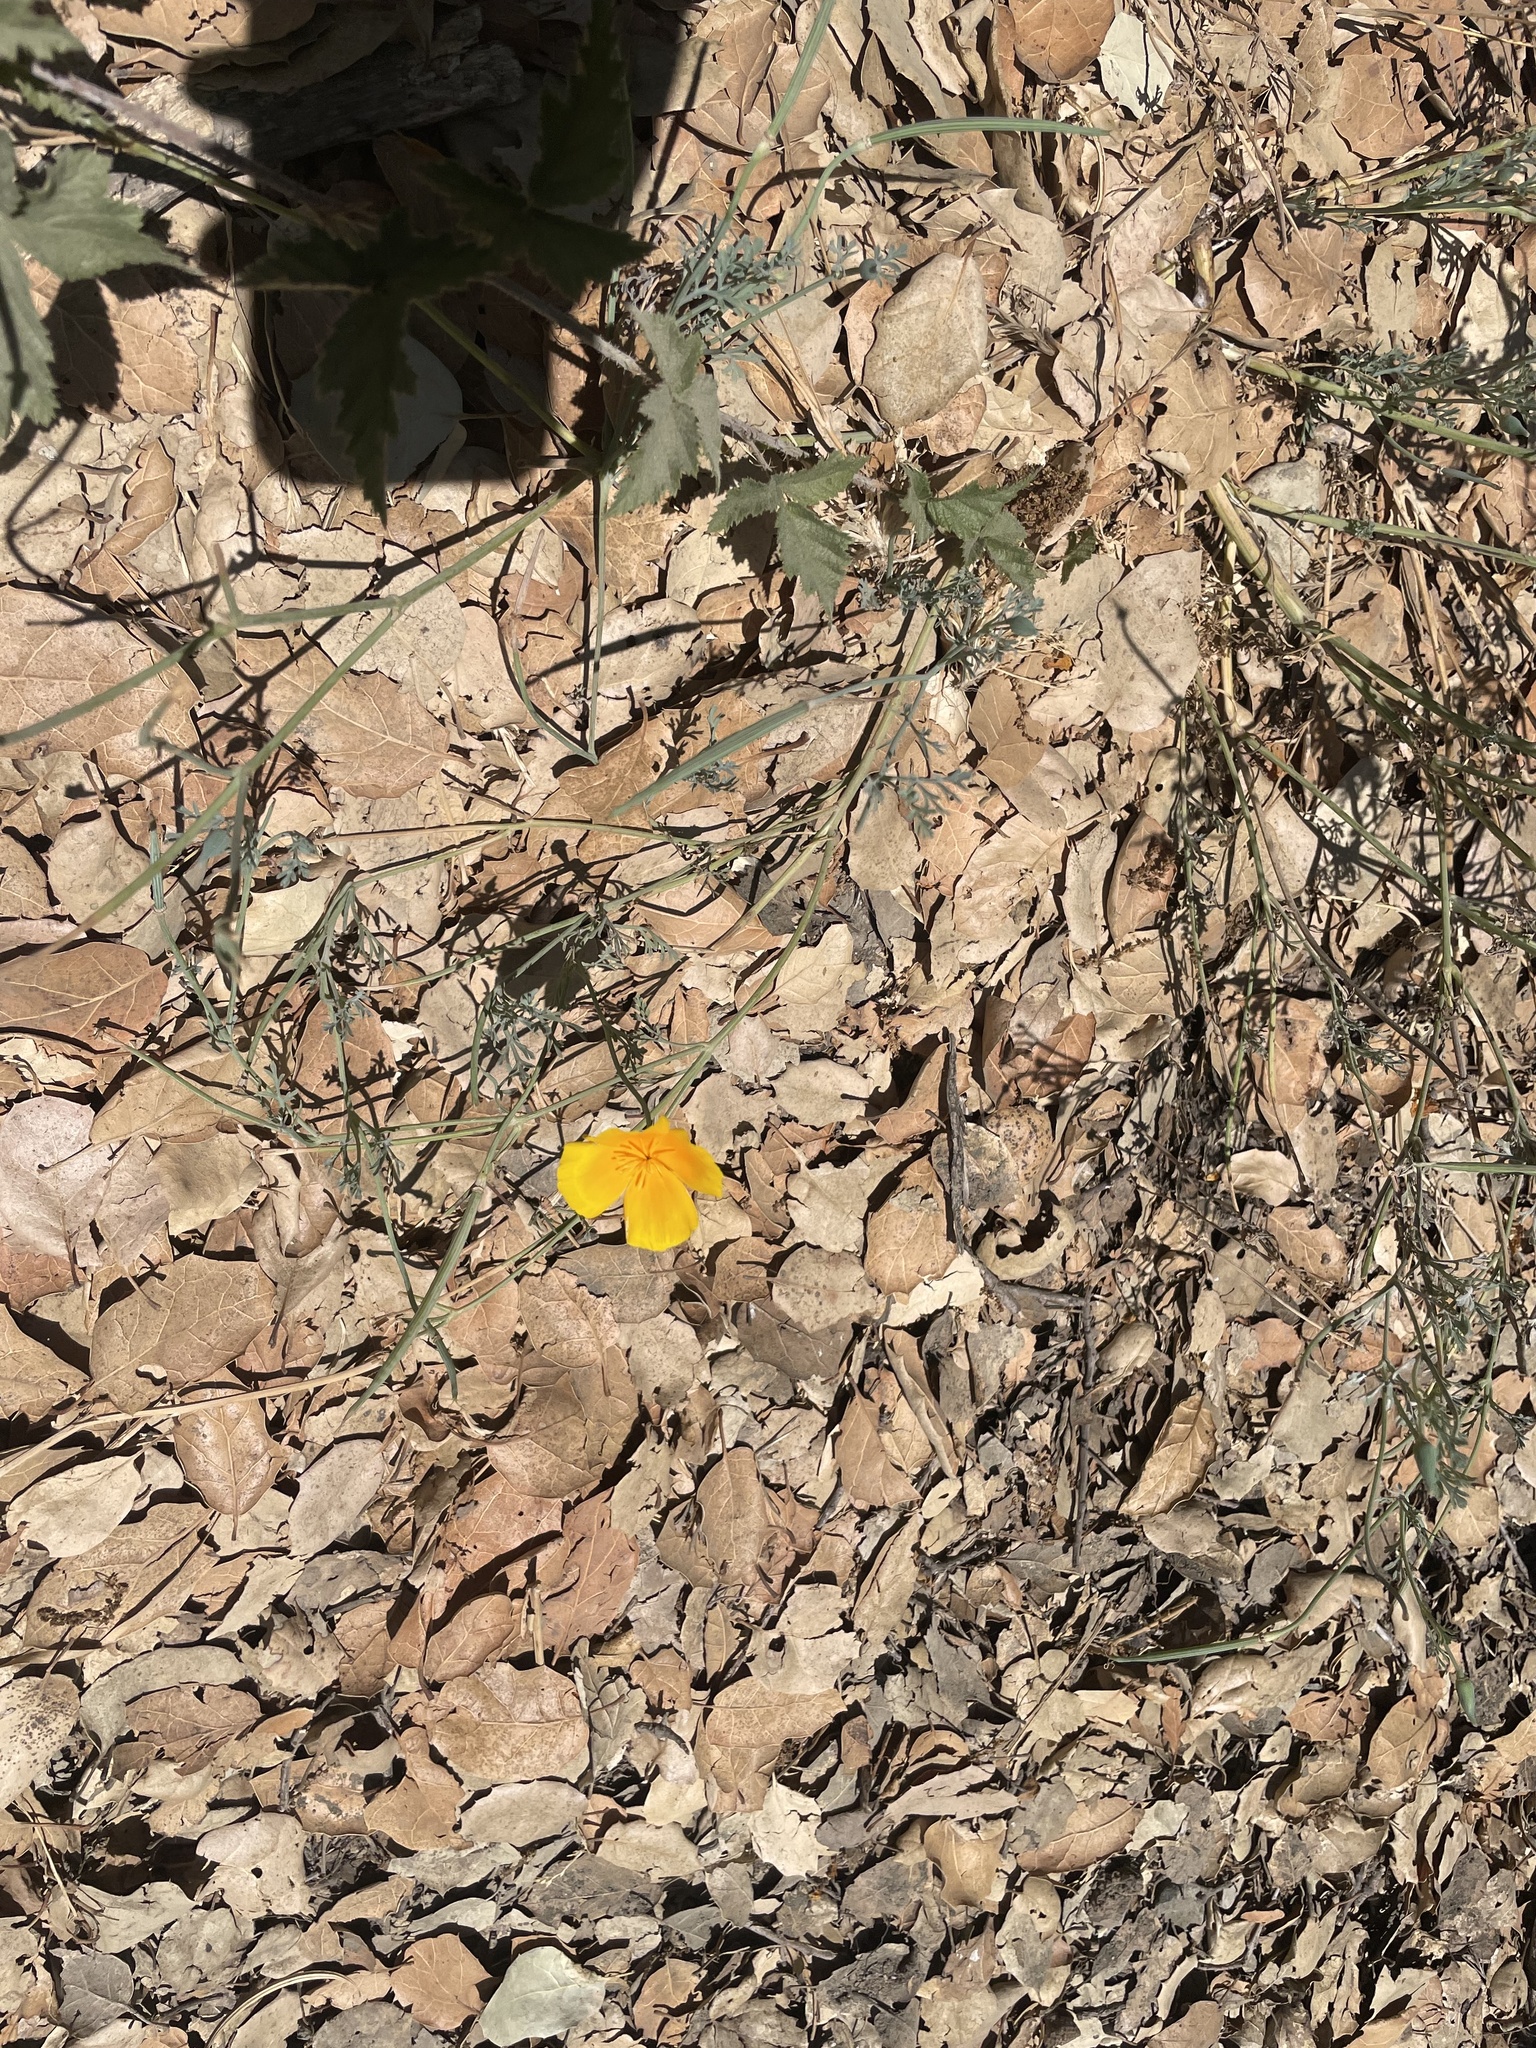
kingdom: Plantae
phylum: Tracheophyta
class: Magnoliopsida
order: Ranunculales
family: Papaveraceae
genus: Eschscholzia
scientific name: Eschscholzia californica
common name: California poppy
